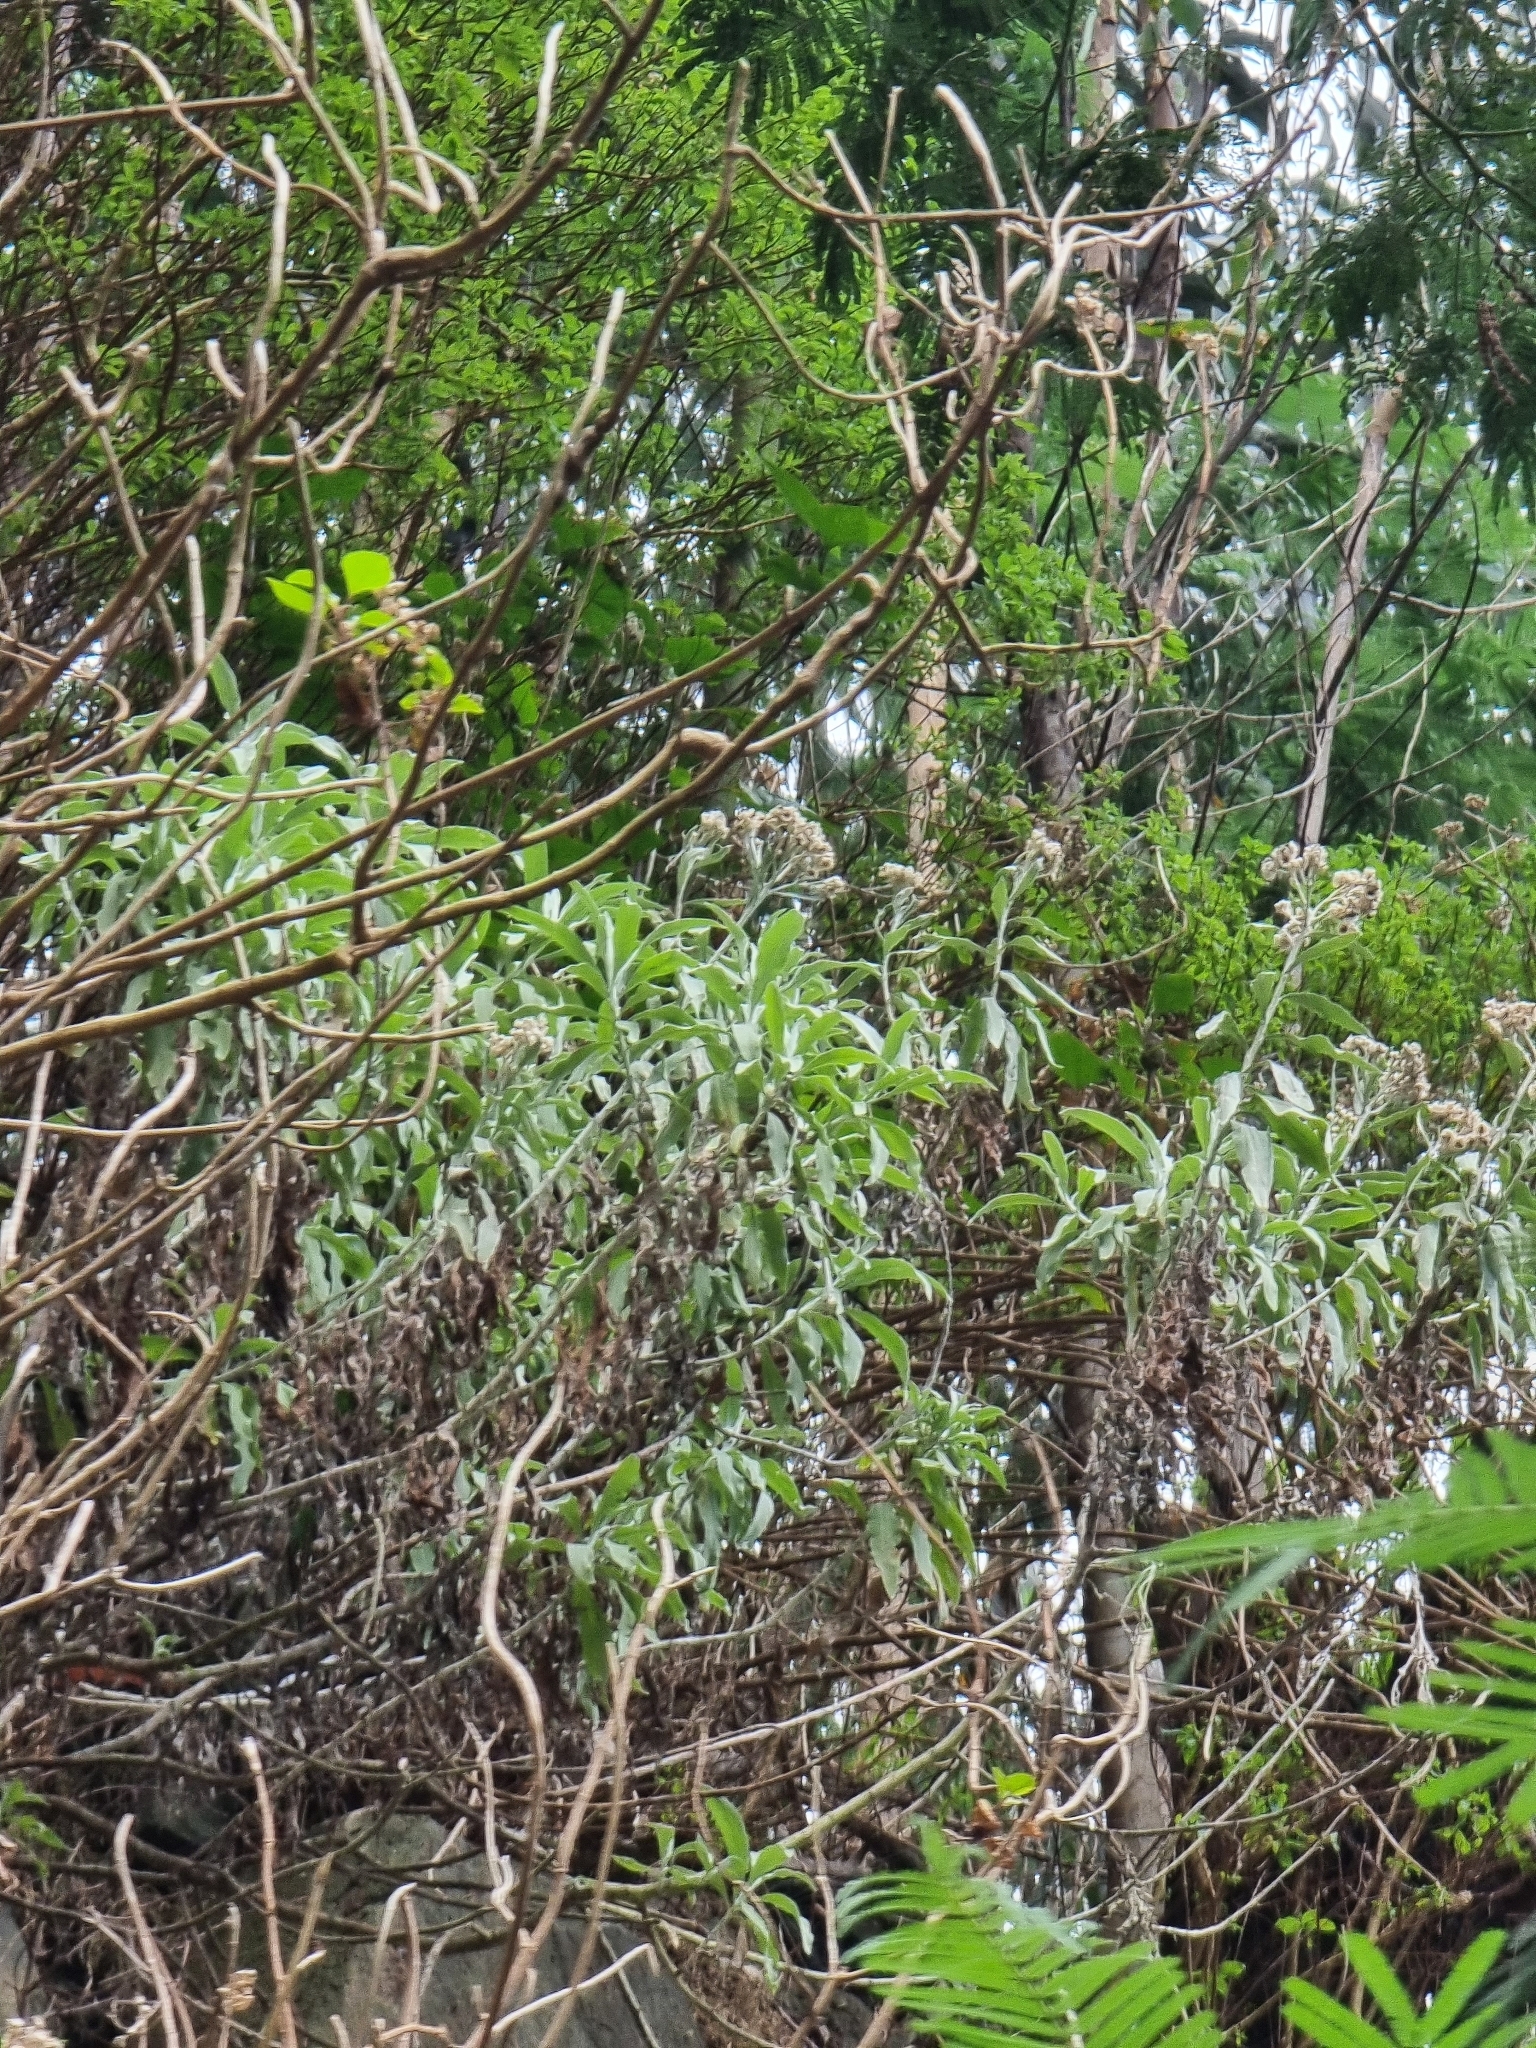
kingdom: Plantae
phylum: Tracheophyta
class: Magnoliopsida
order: Asterales
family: Asteraceae
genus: Helichrysum
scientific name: Helichrysum melaleucum
